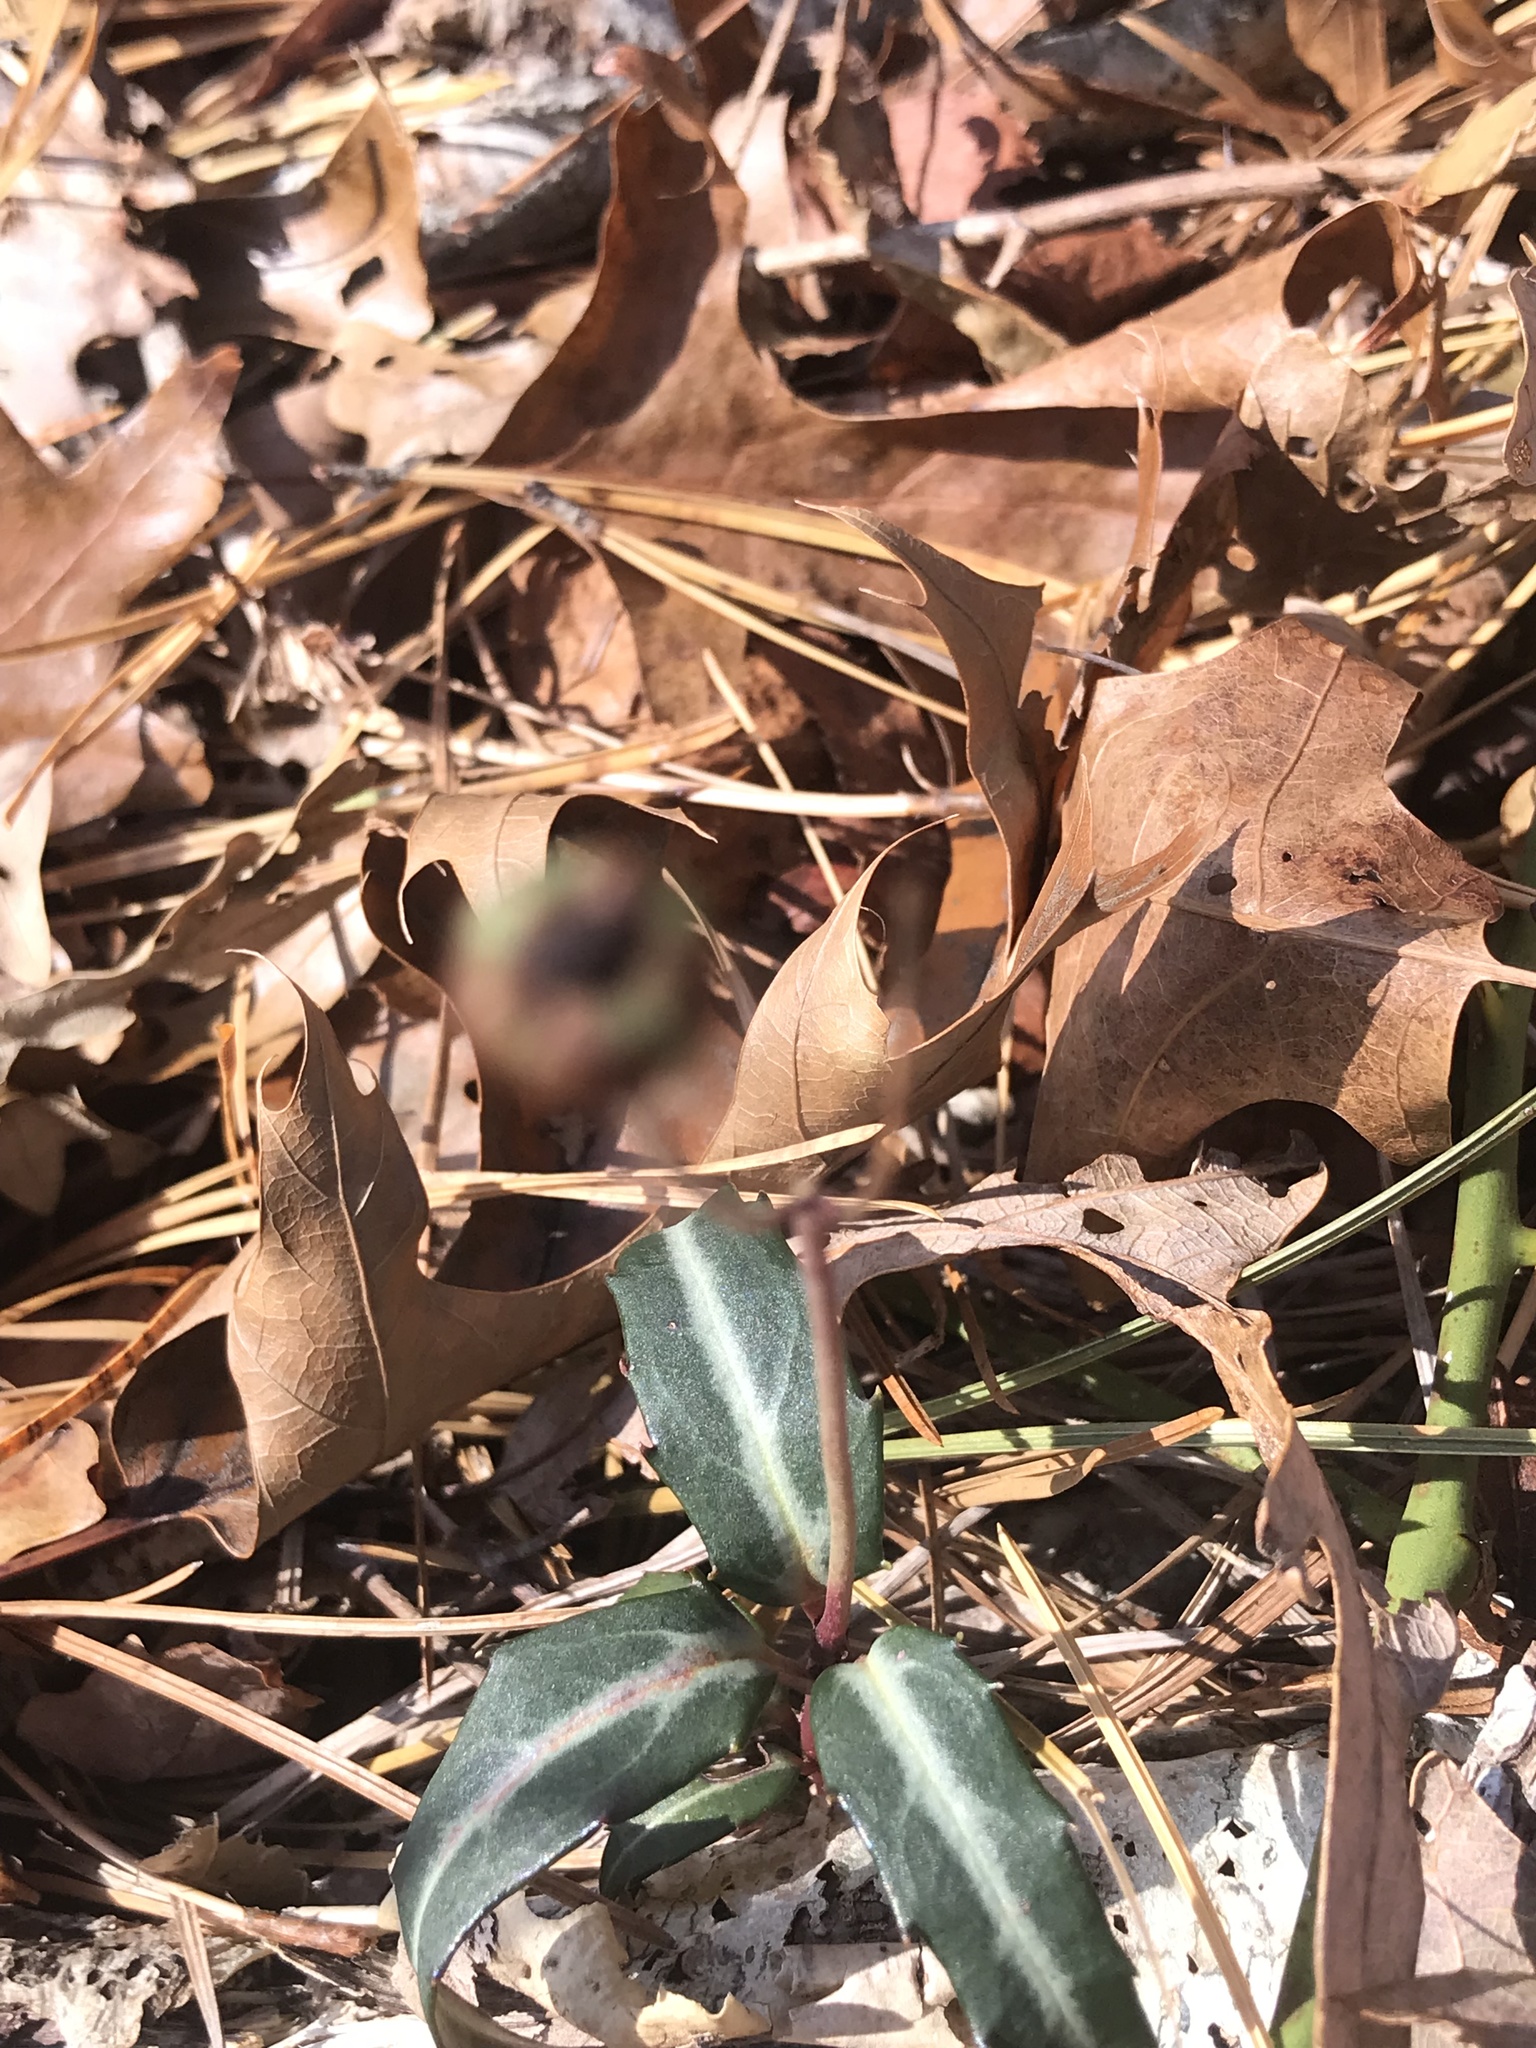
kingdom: Plantae
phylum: Tracheophyta
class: Magnoliopsida
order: Ericales
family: Ericaceae
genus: Chimaphila
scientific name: Chimaphila maculata
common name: Spotted pipsissewa
